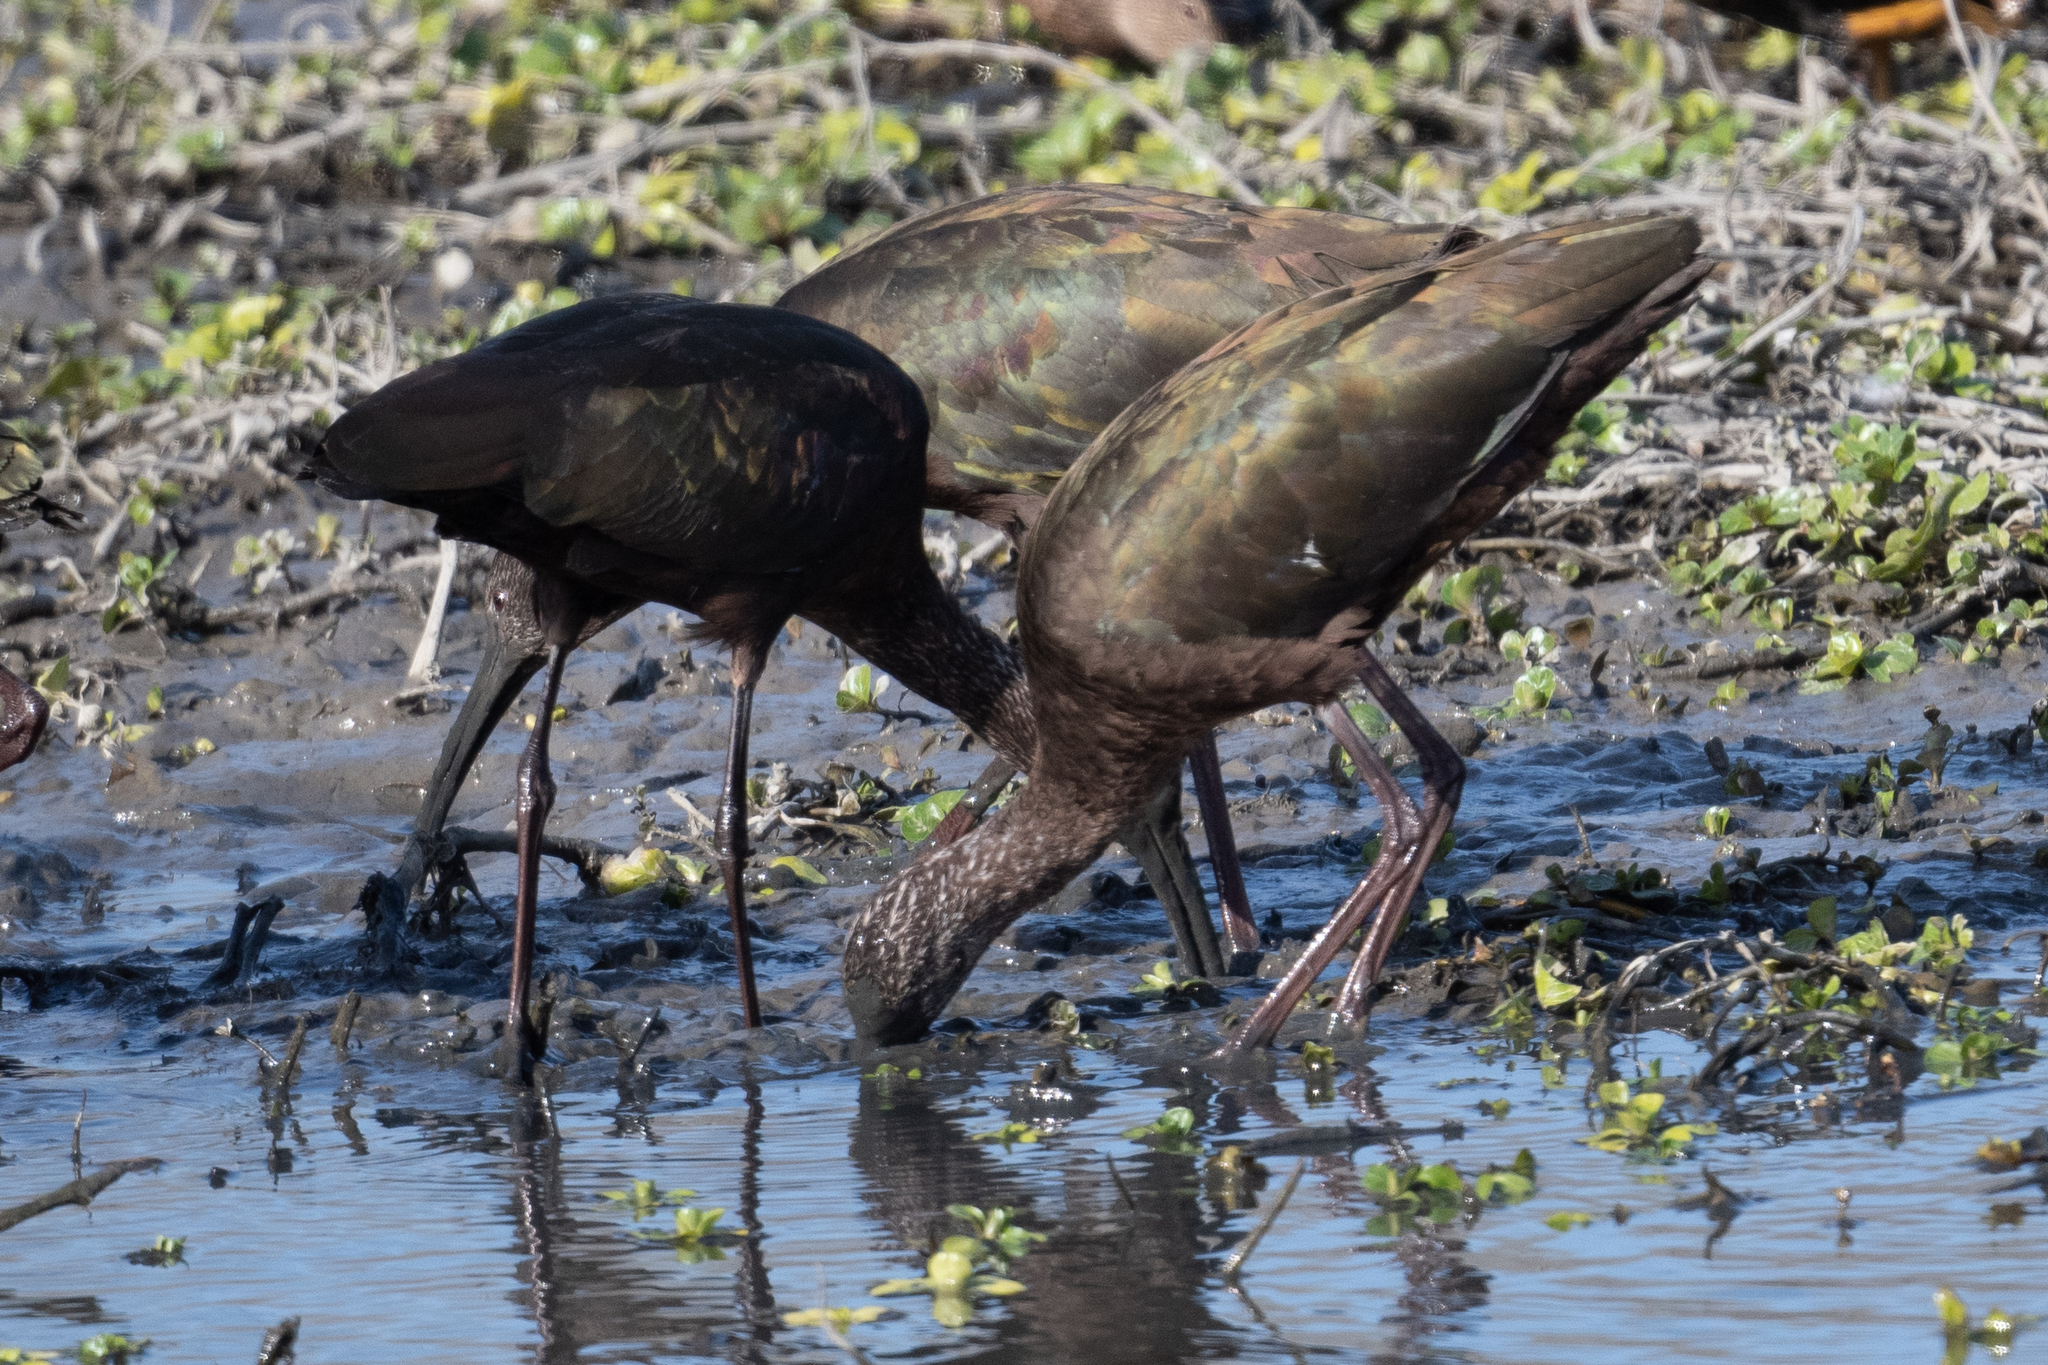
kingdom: Animalia
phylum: Chordata
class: Aves
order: Pelecaniformes
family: Threskiornithidae
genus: Plegadis
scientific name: Plegadis chihi
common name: White-faced ibis
